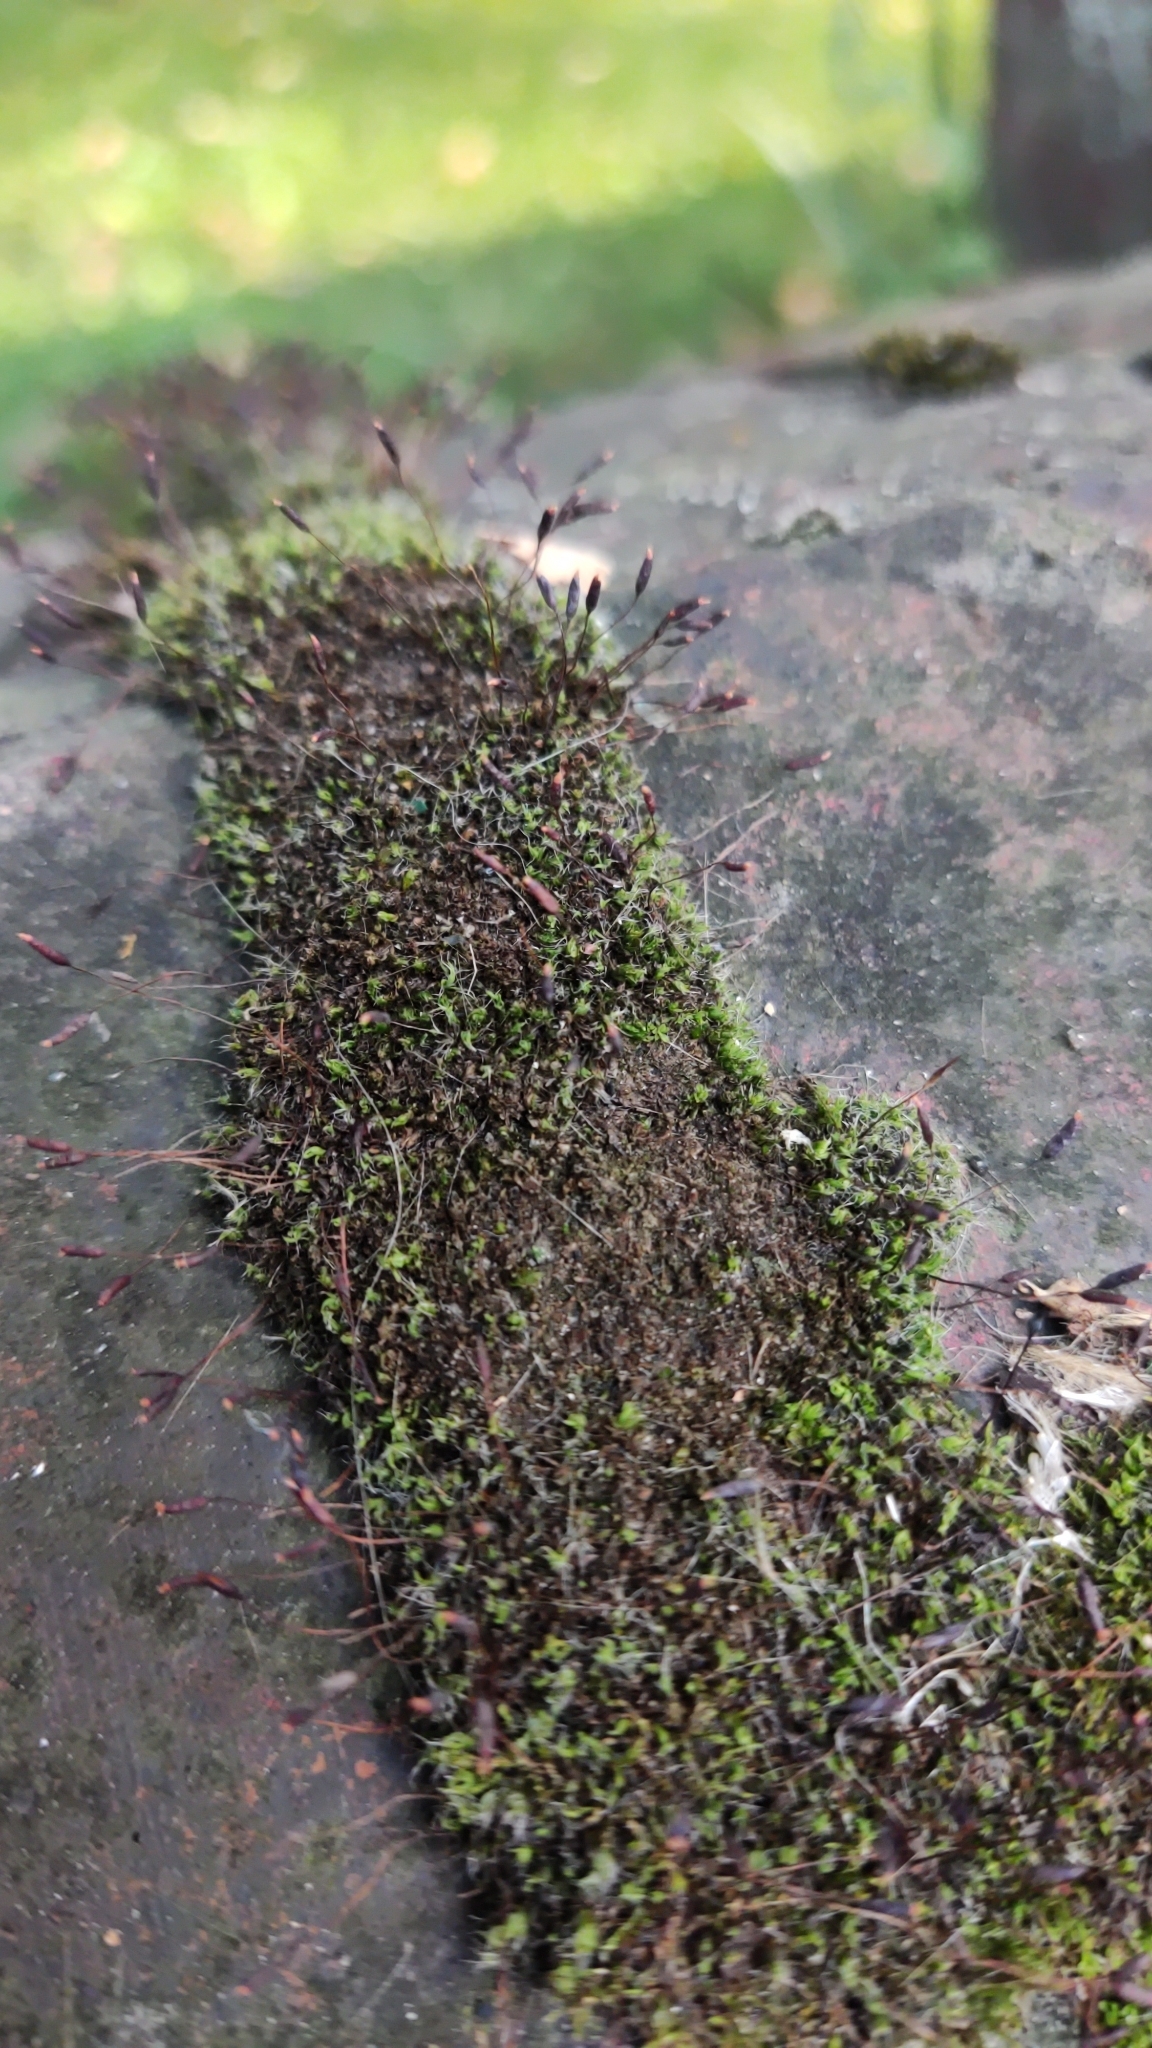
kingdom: Plantae
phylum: Bryophyta
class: Bryopsida
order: Pottiales
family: Pottiaceae
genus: Tortula
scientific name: Tortula muralis
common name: Wall screw-moss
